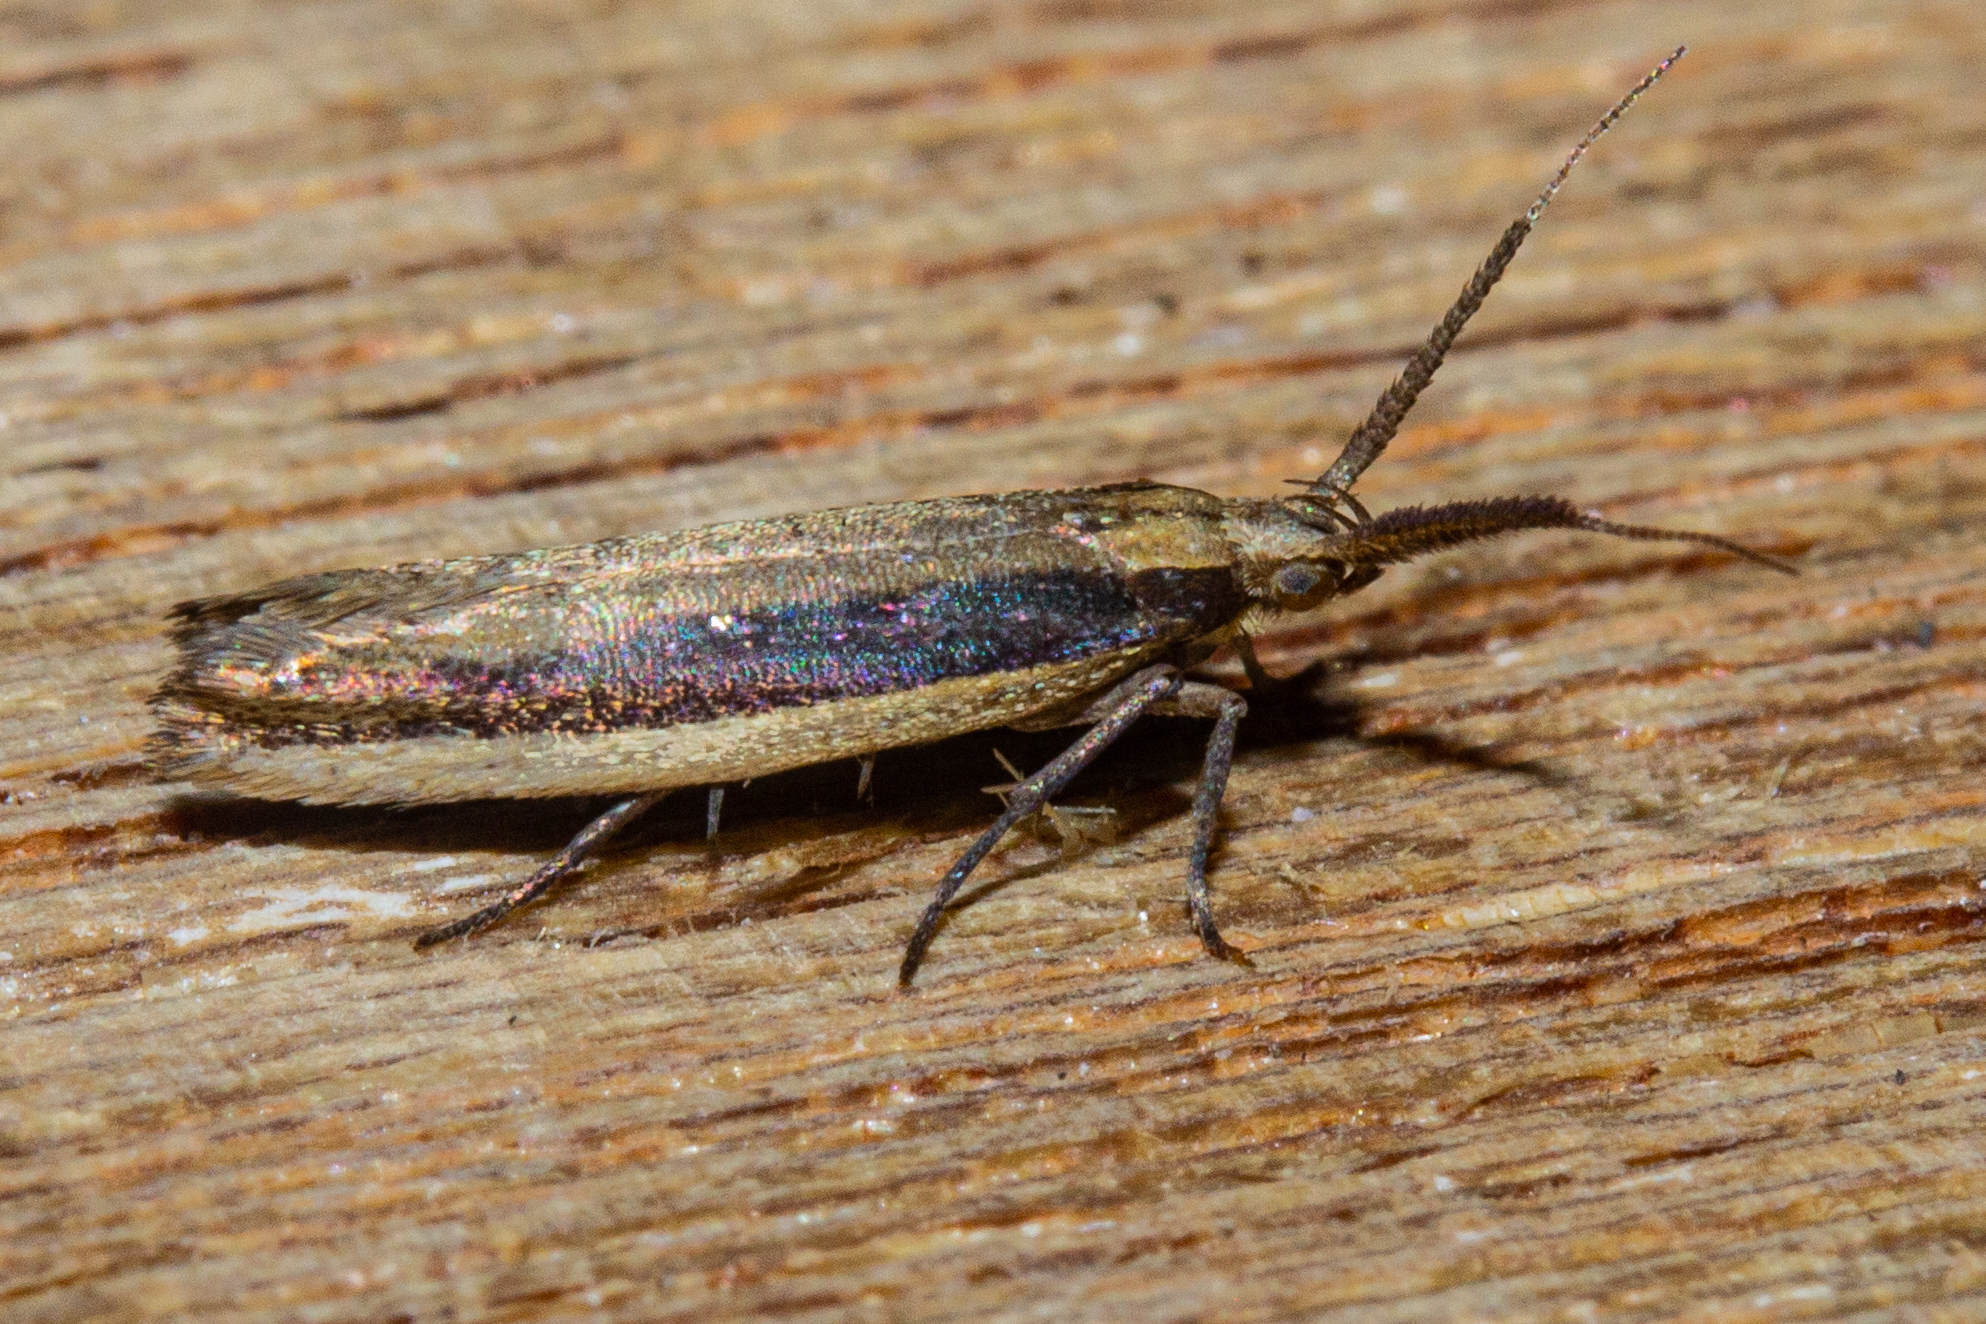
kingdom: Animalia
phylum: Arthropoda
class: Insecta
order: Lepidoptera
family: Plutellidae
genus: Phylacodes
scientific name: Phylacodes cauta
